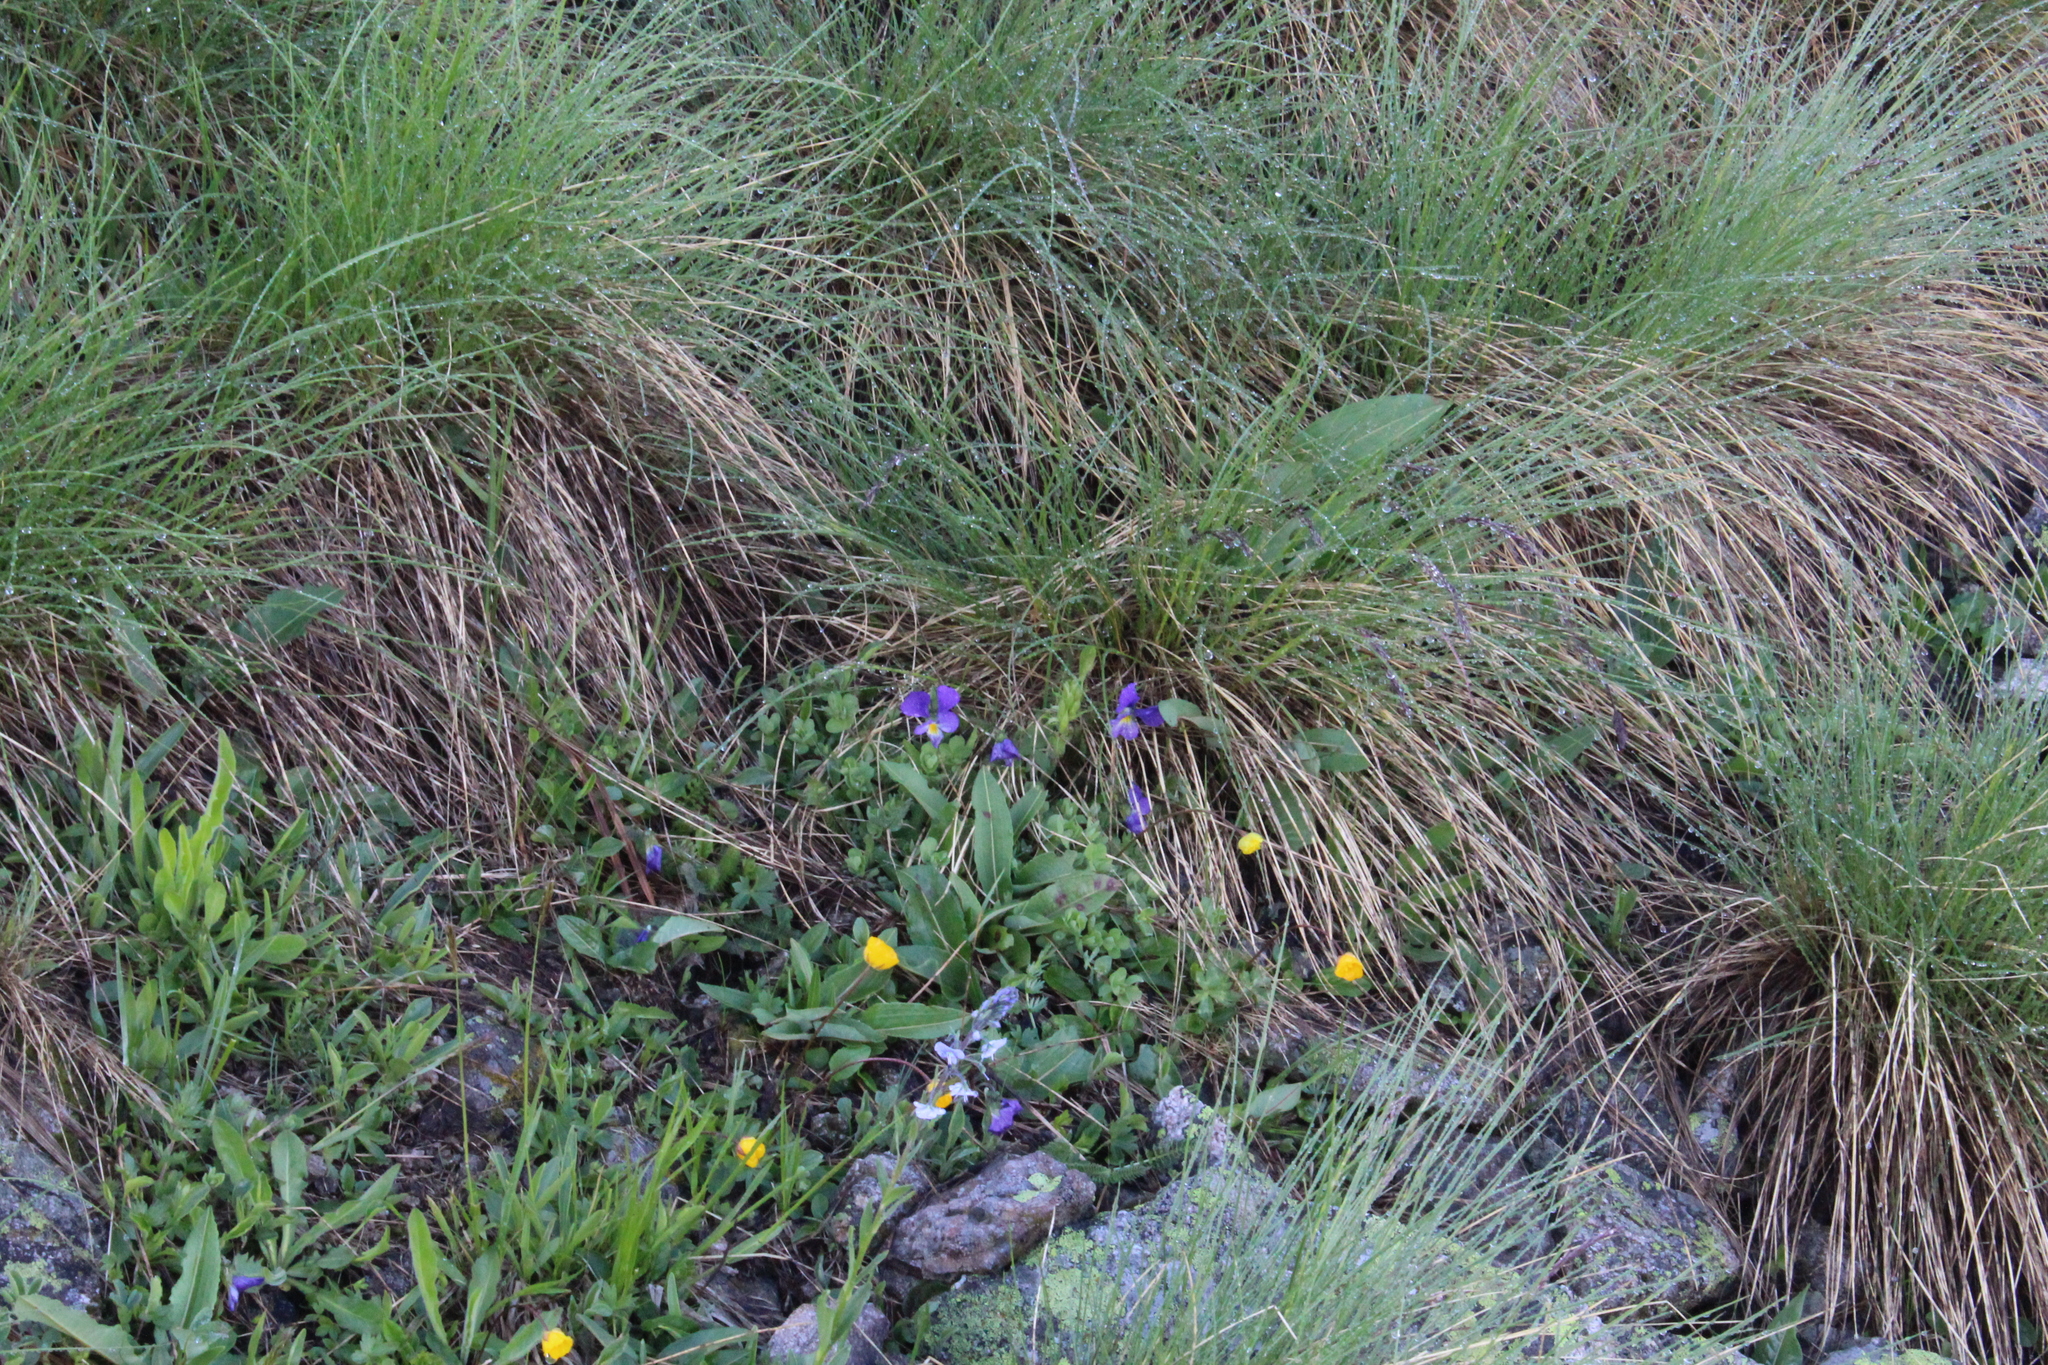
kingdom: Plantae
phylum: Tracheophyta
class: Magnoliopsida
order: Malpighiales
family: Violaceae
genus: Viola
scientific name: Viola oreades
